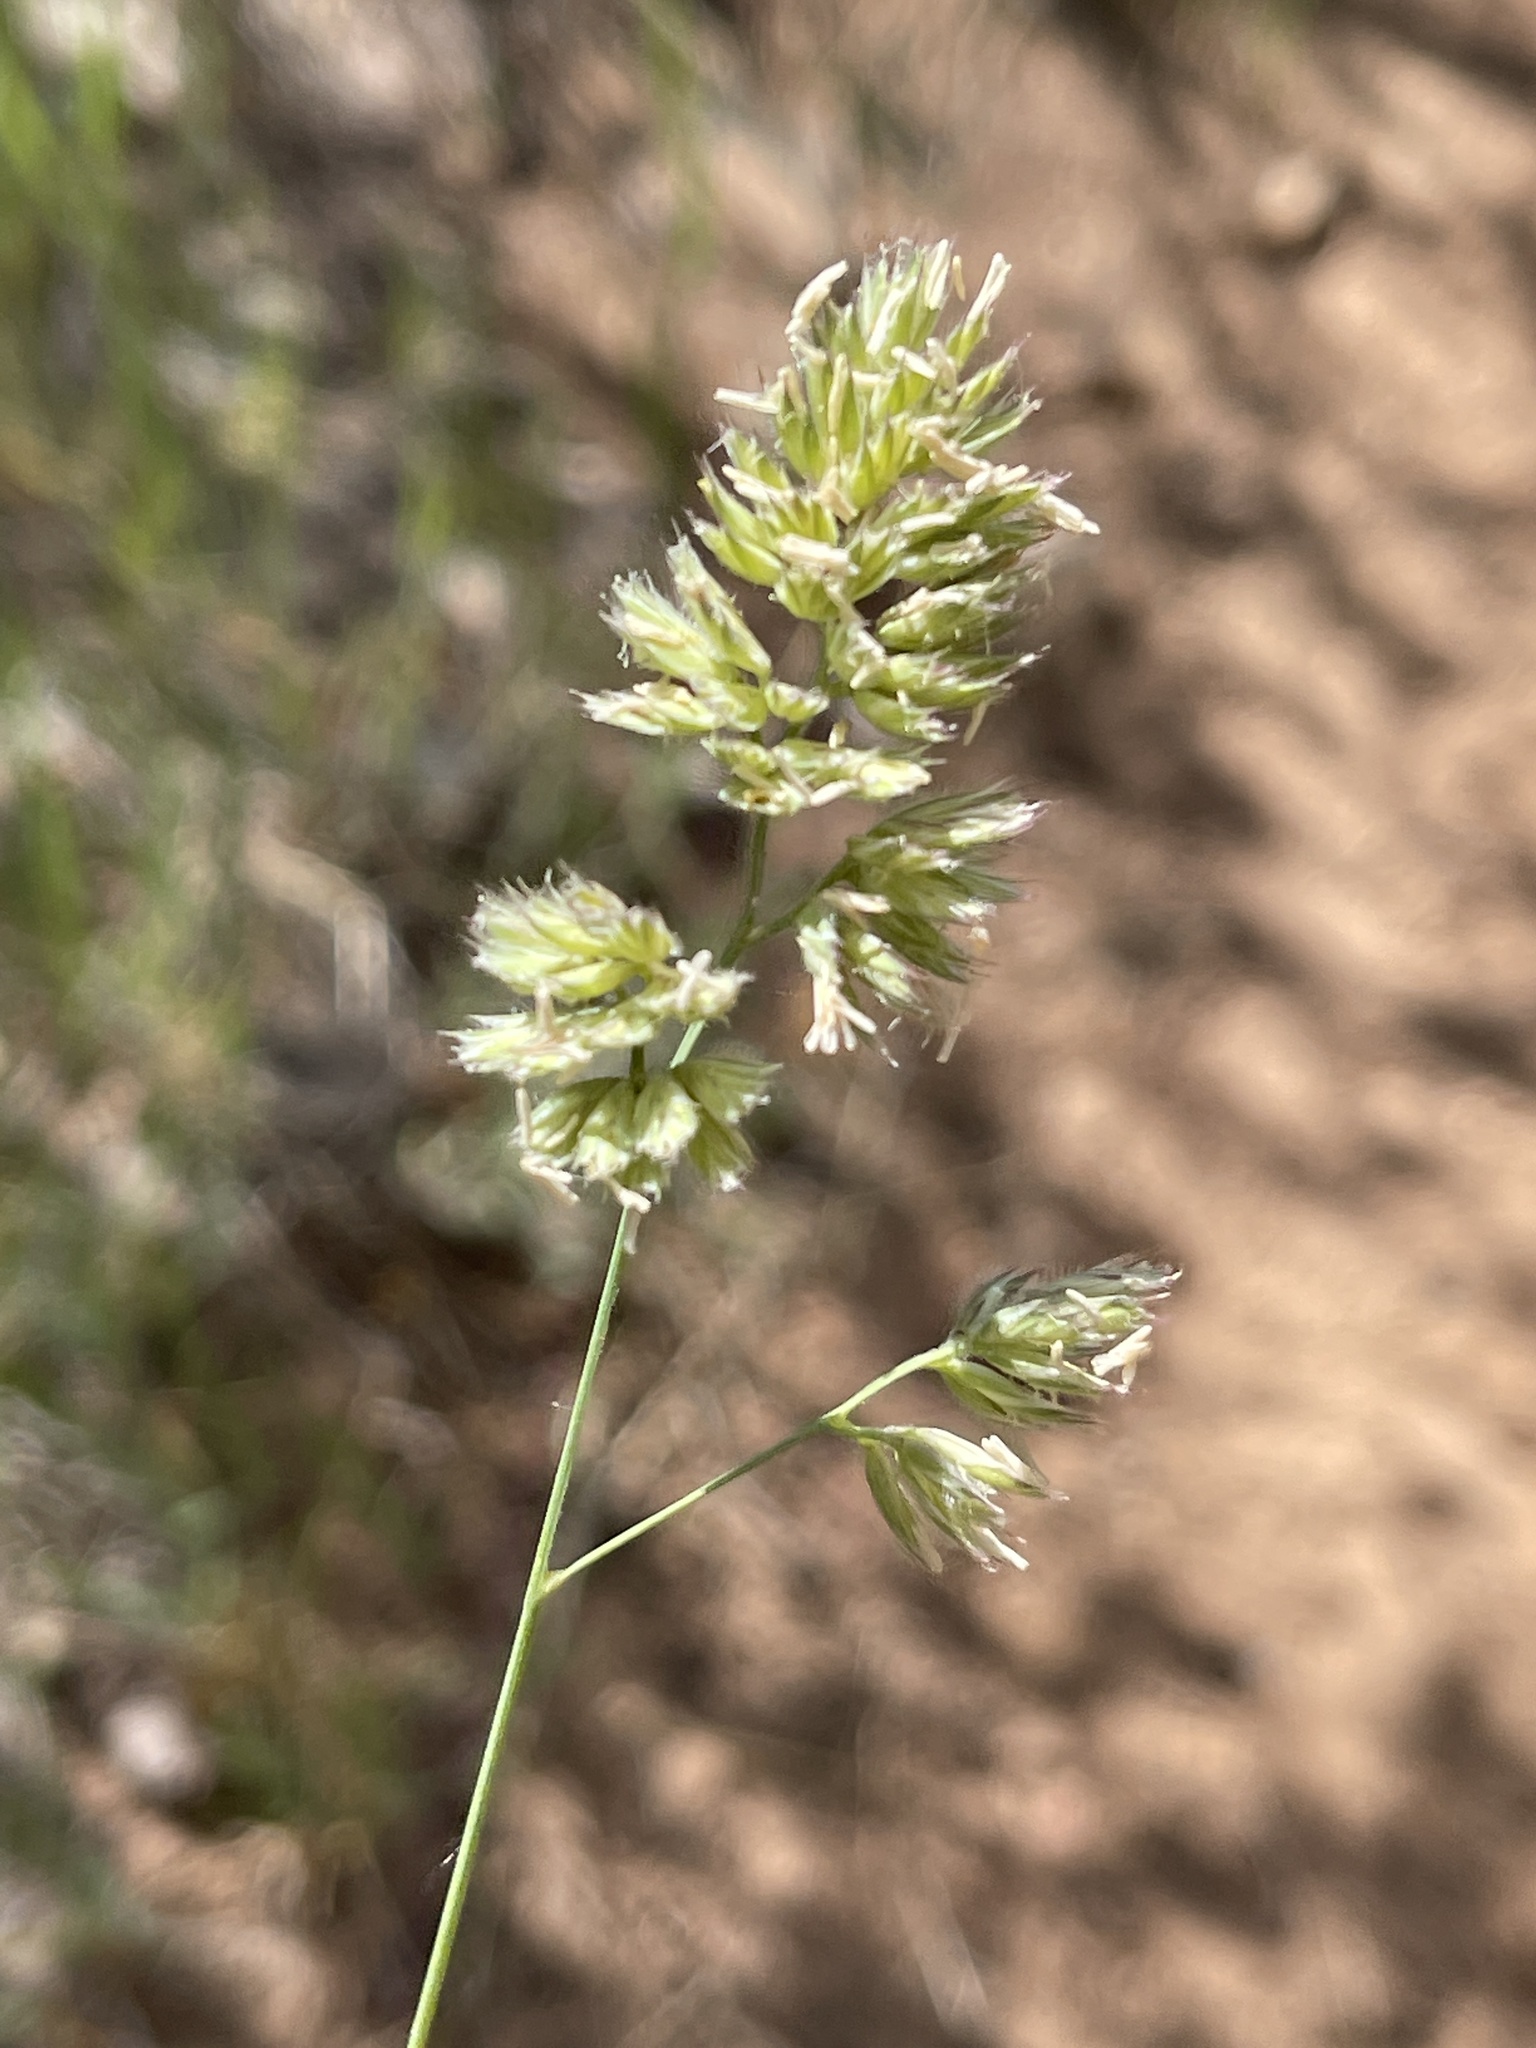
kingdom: Plantae
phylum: Tracheophyta
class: Liliopsida
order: Poales
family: Poaceae
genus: Dactylis
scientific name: Dactylis glomerata
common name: Orchardgrass
